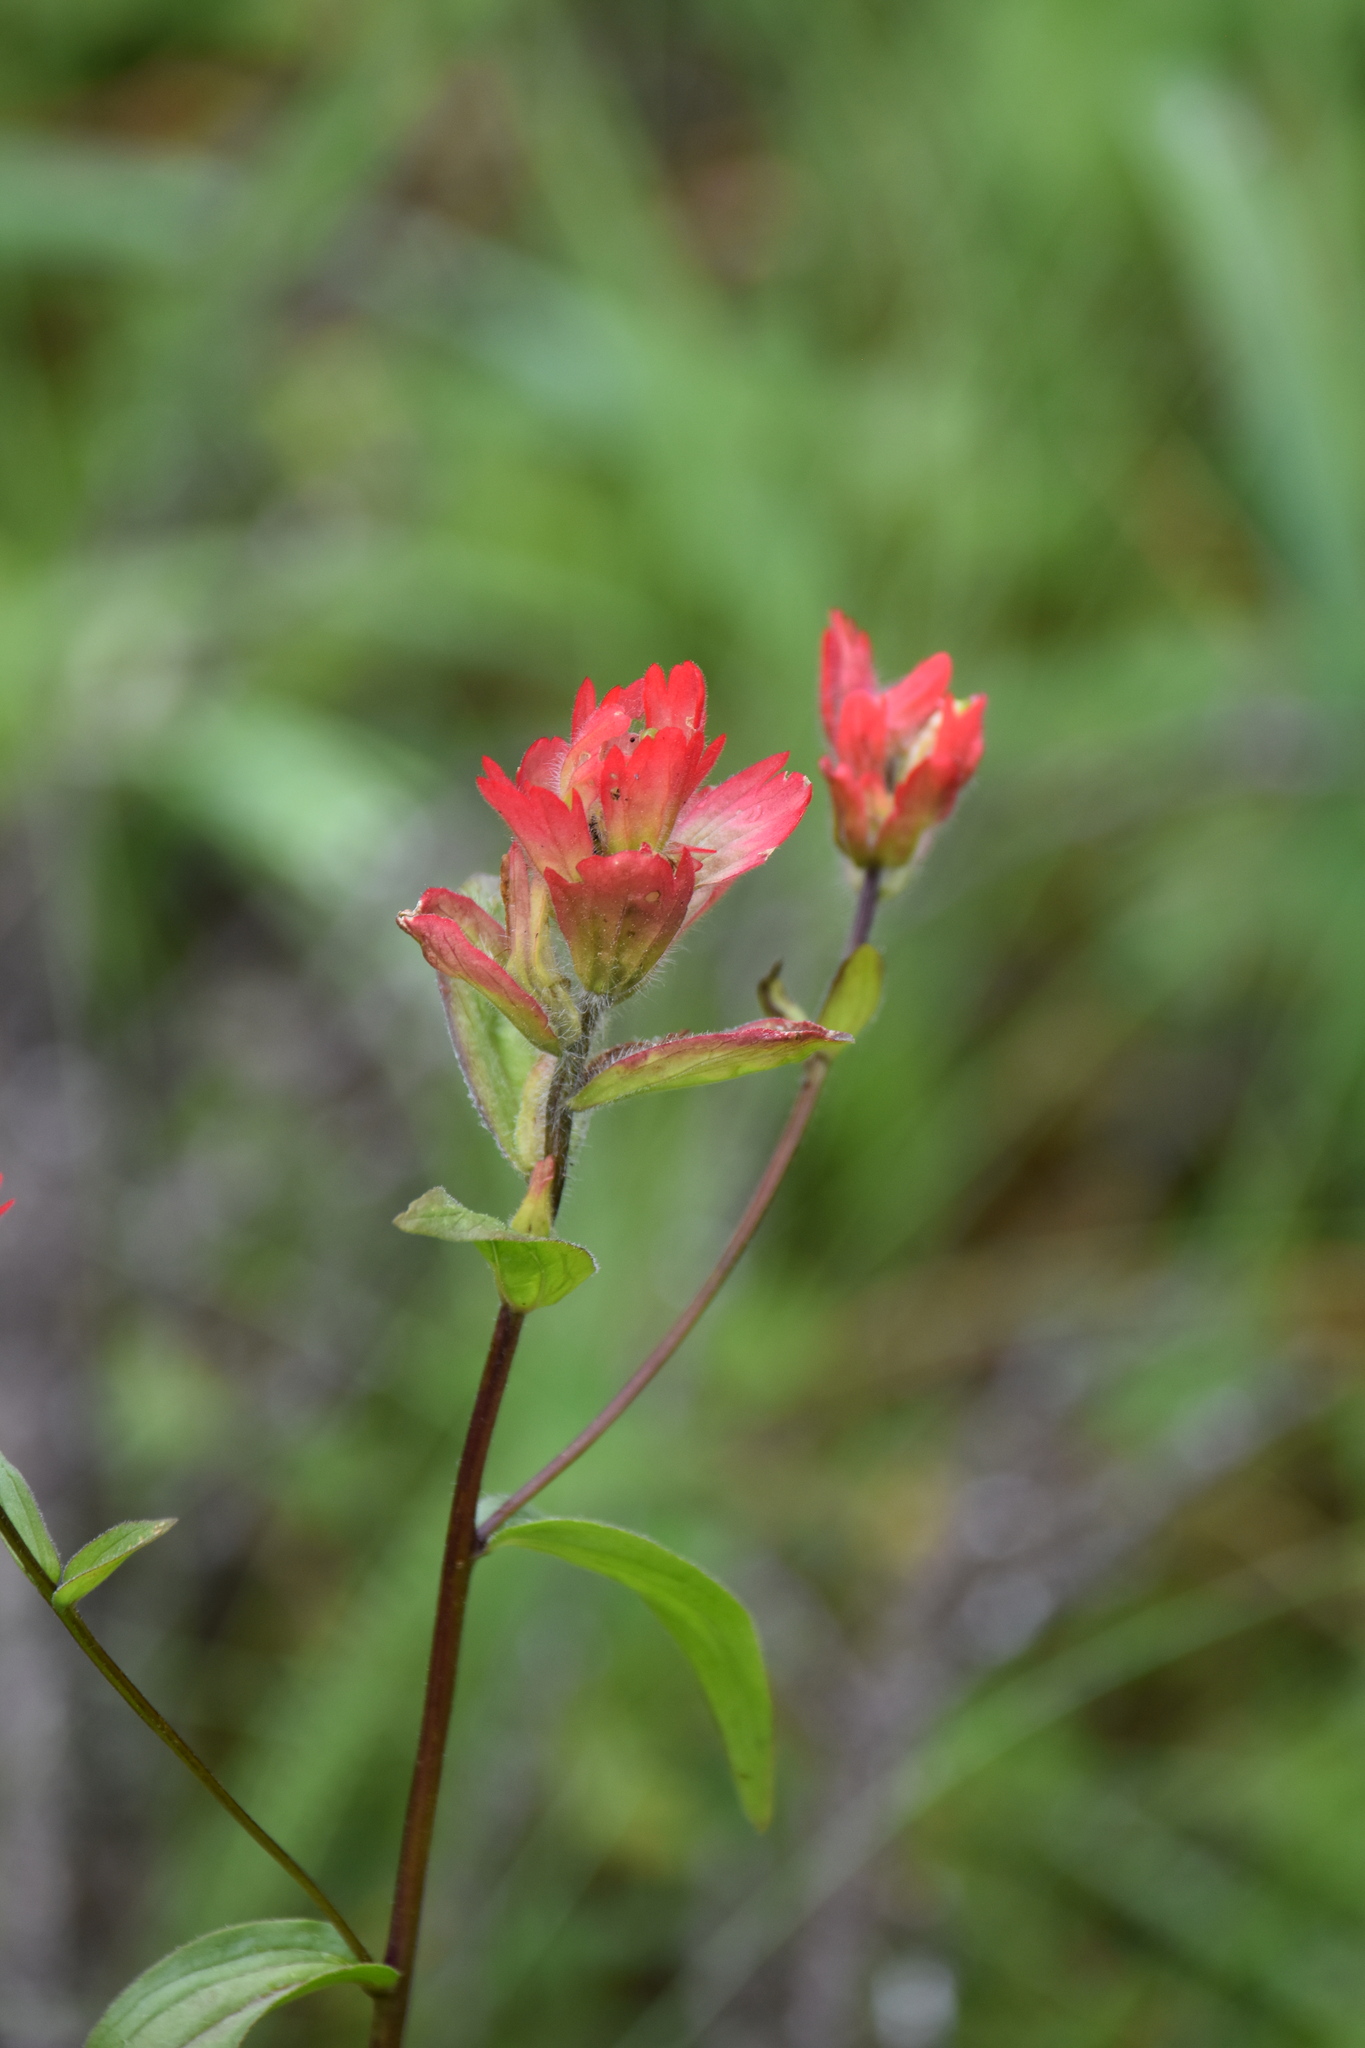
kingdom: Plantae
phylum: Tracheophyta
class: Magnoliopsida
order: Lamiales
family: Orobanchaceae
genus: Castilleja
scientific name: Castilleja miniata
